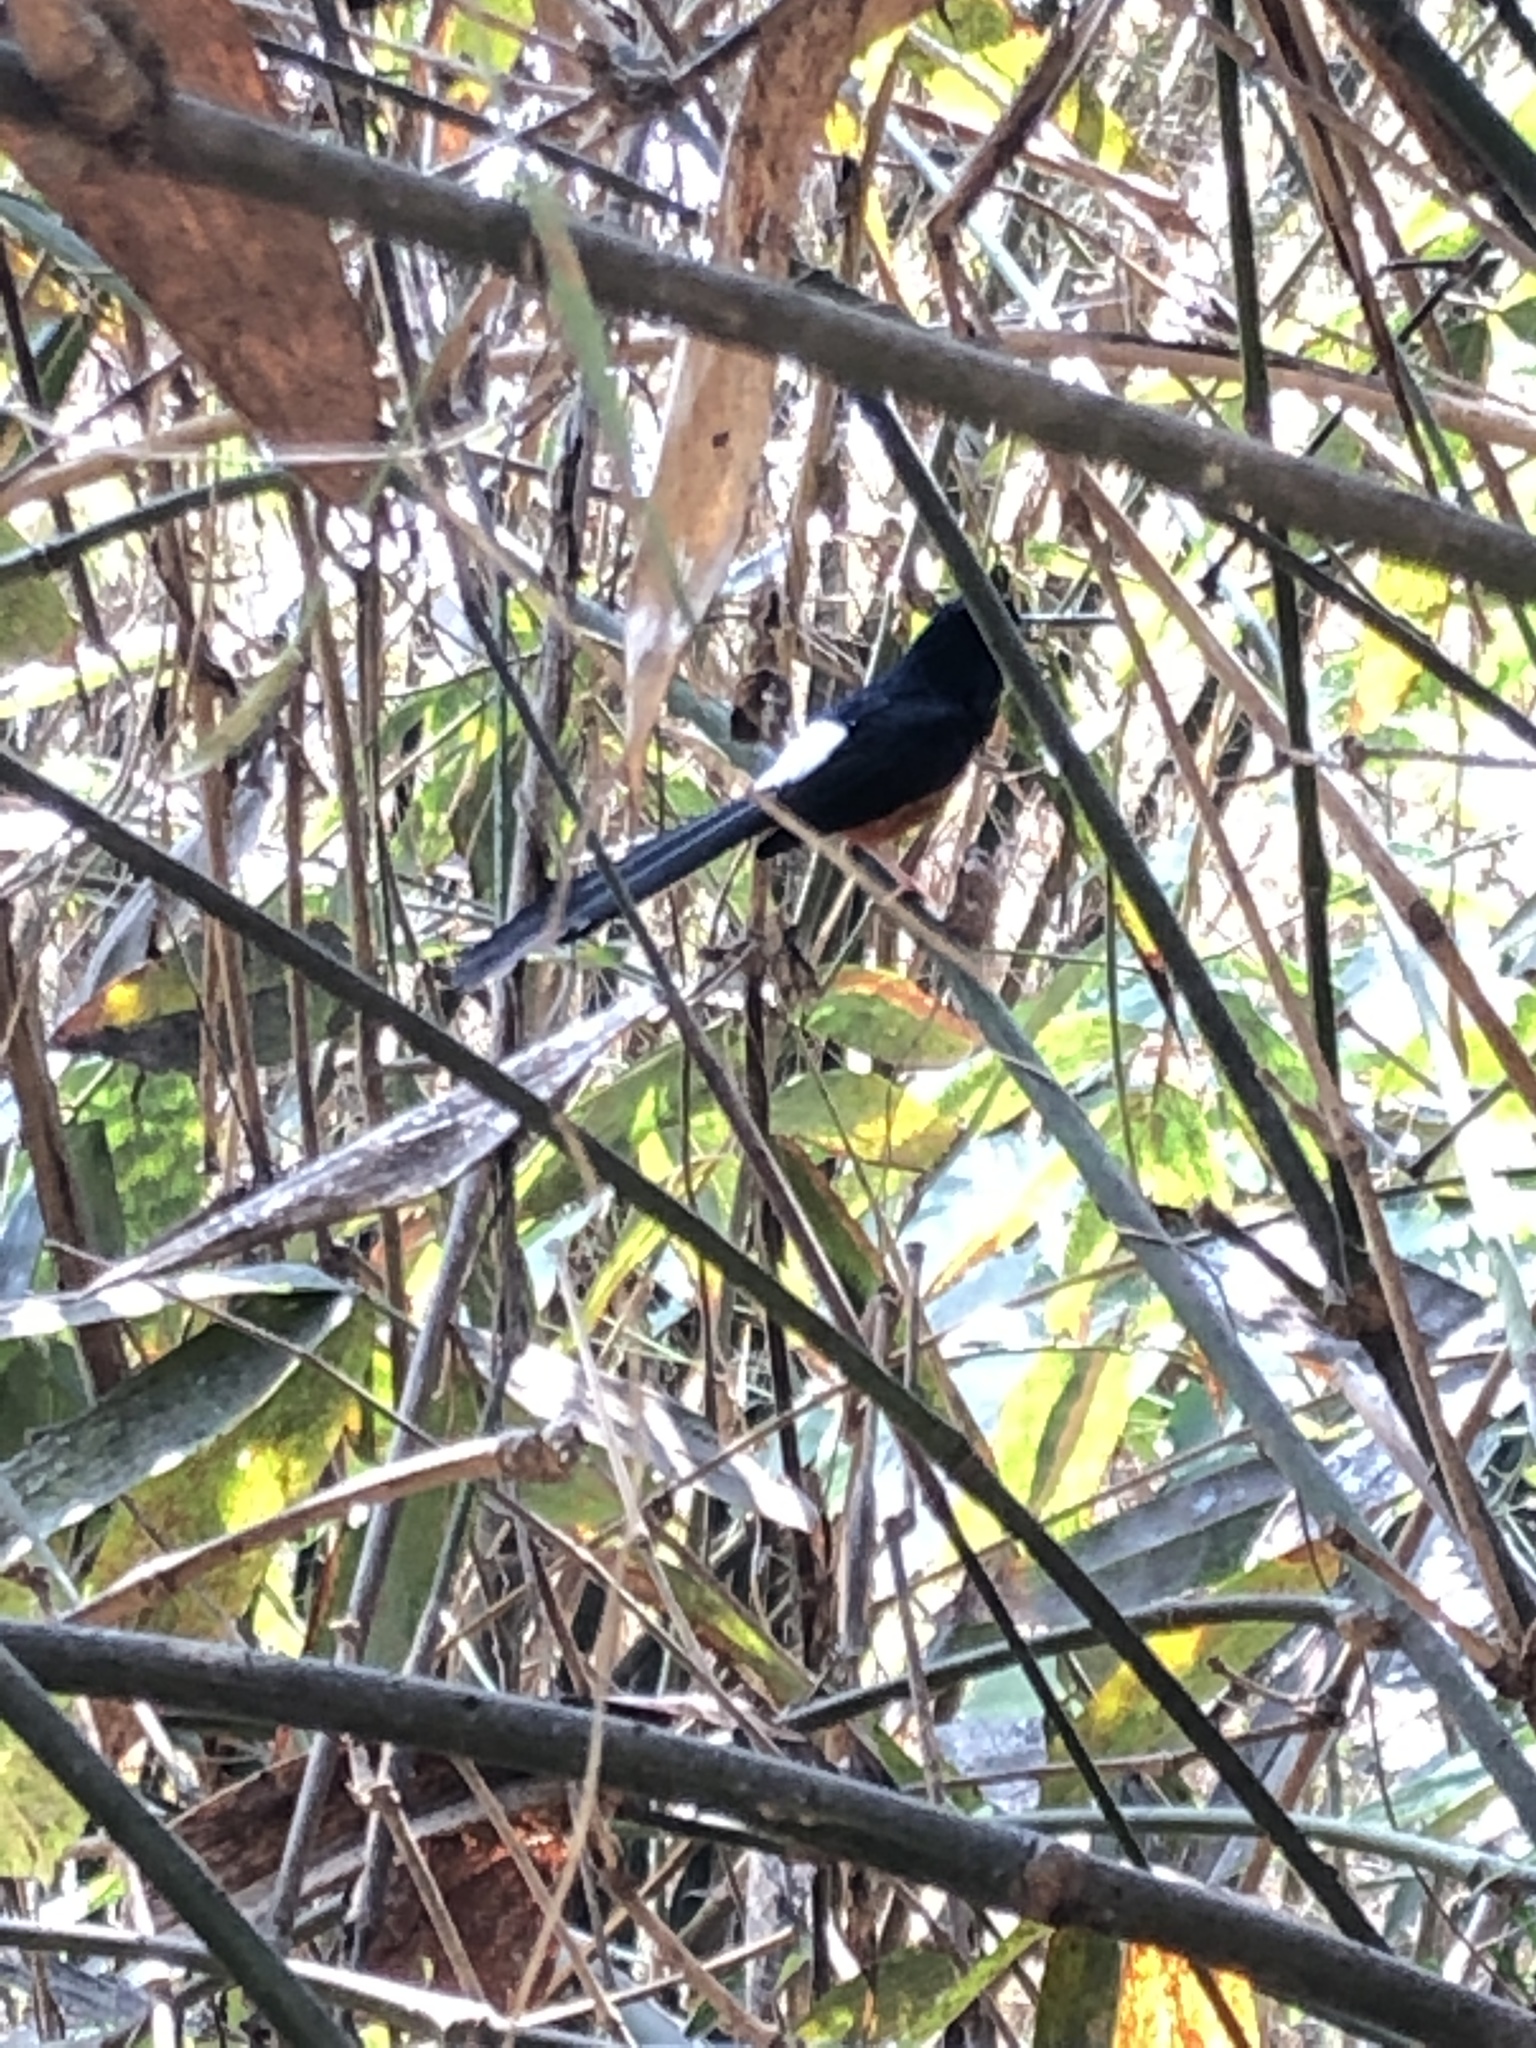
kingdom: Animalia
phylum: Chordata
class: Aves
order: Passeriformes
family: Muscicapidae
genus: Copsychus
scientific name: Copsychus malabaricus
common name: White-rumped shama
